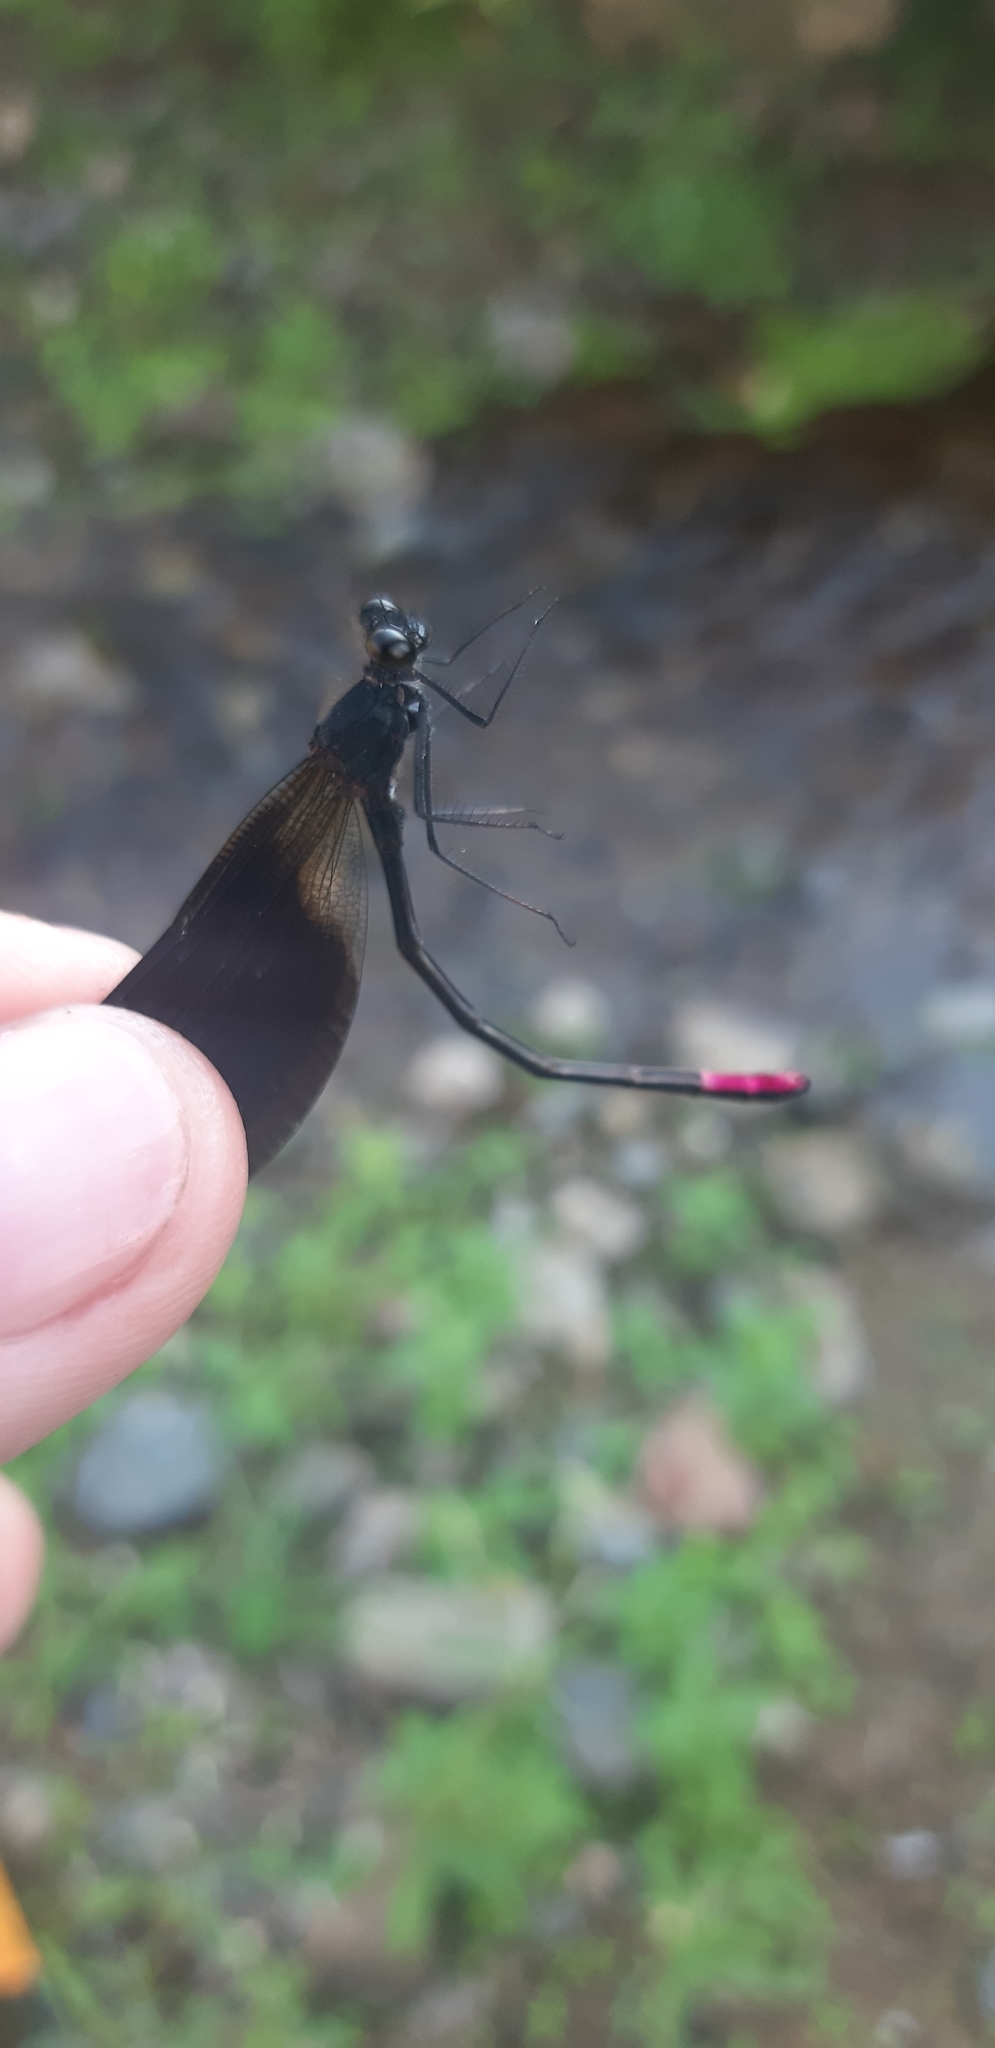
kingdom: Animalia
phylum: Arthropoda
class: Insecta
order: Odonata
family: Calopterygidae
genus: Calopteryx
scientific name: Calopteryx haemorrhoidalis
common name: Copper demoiselle
